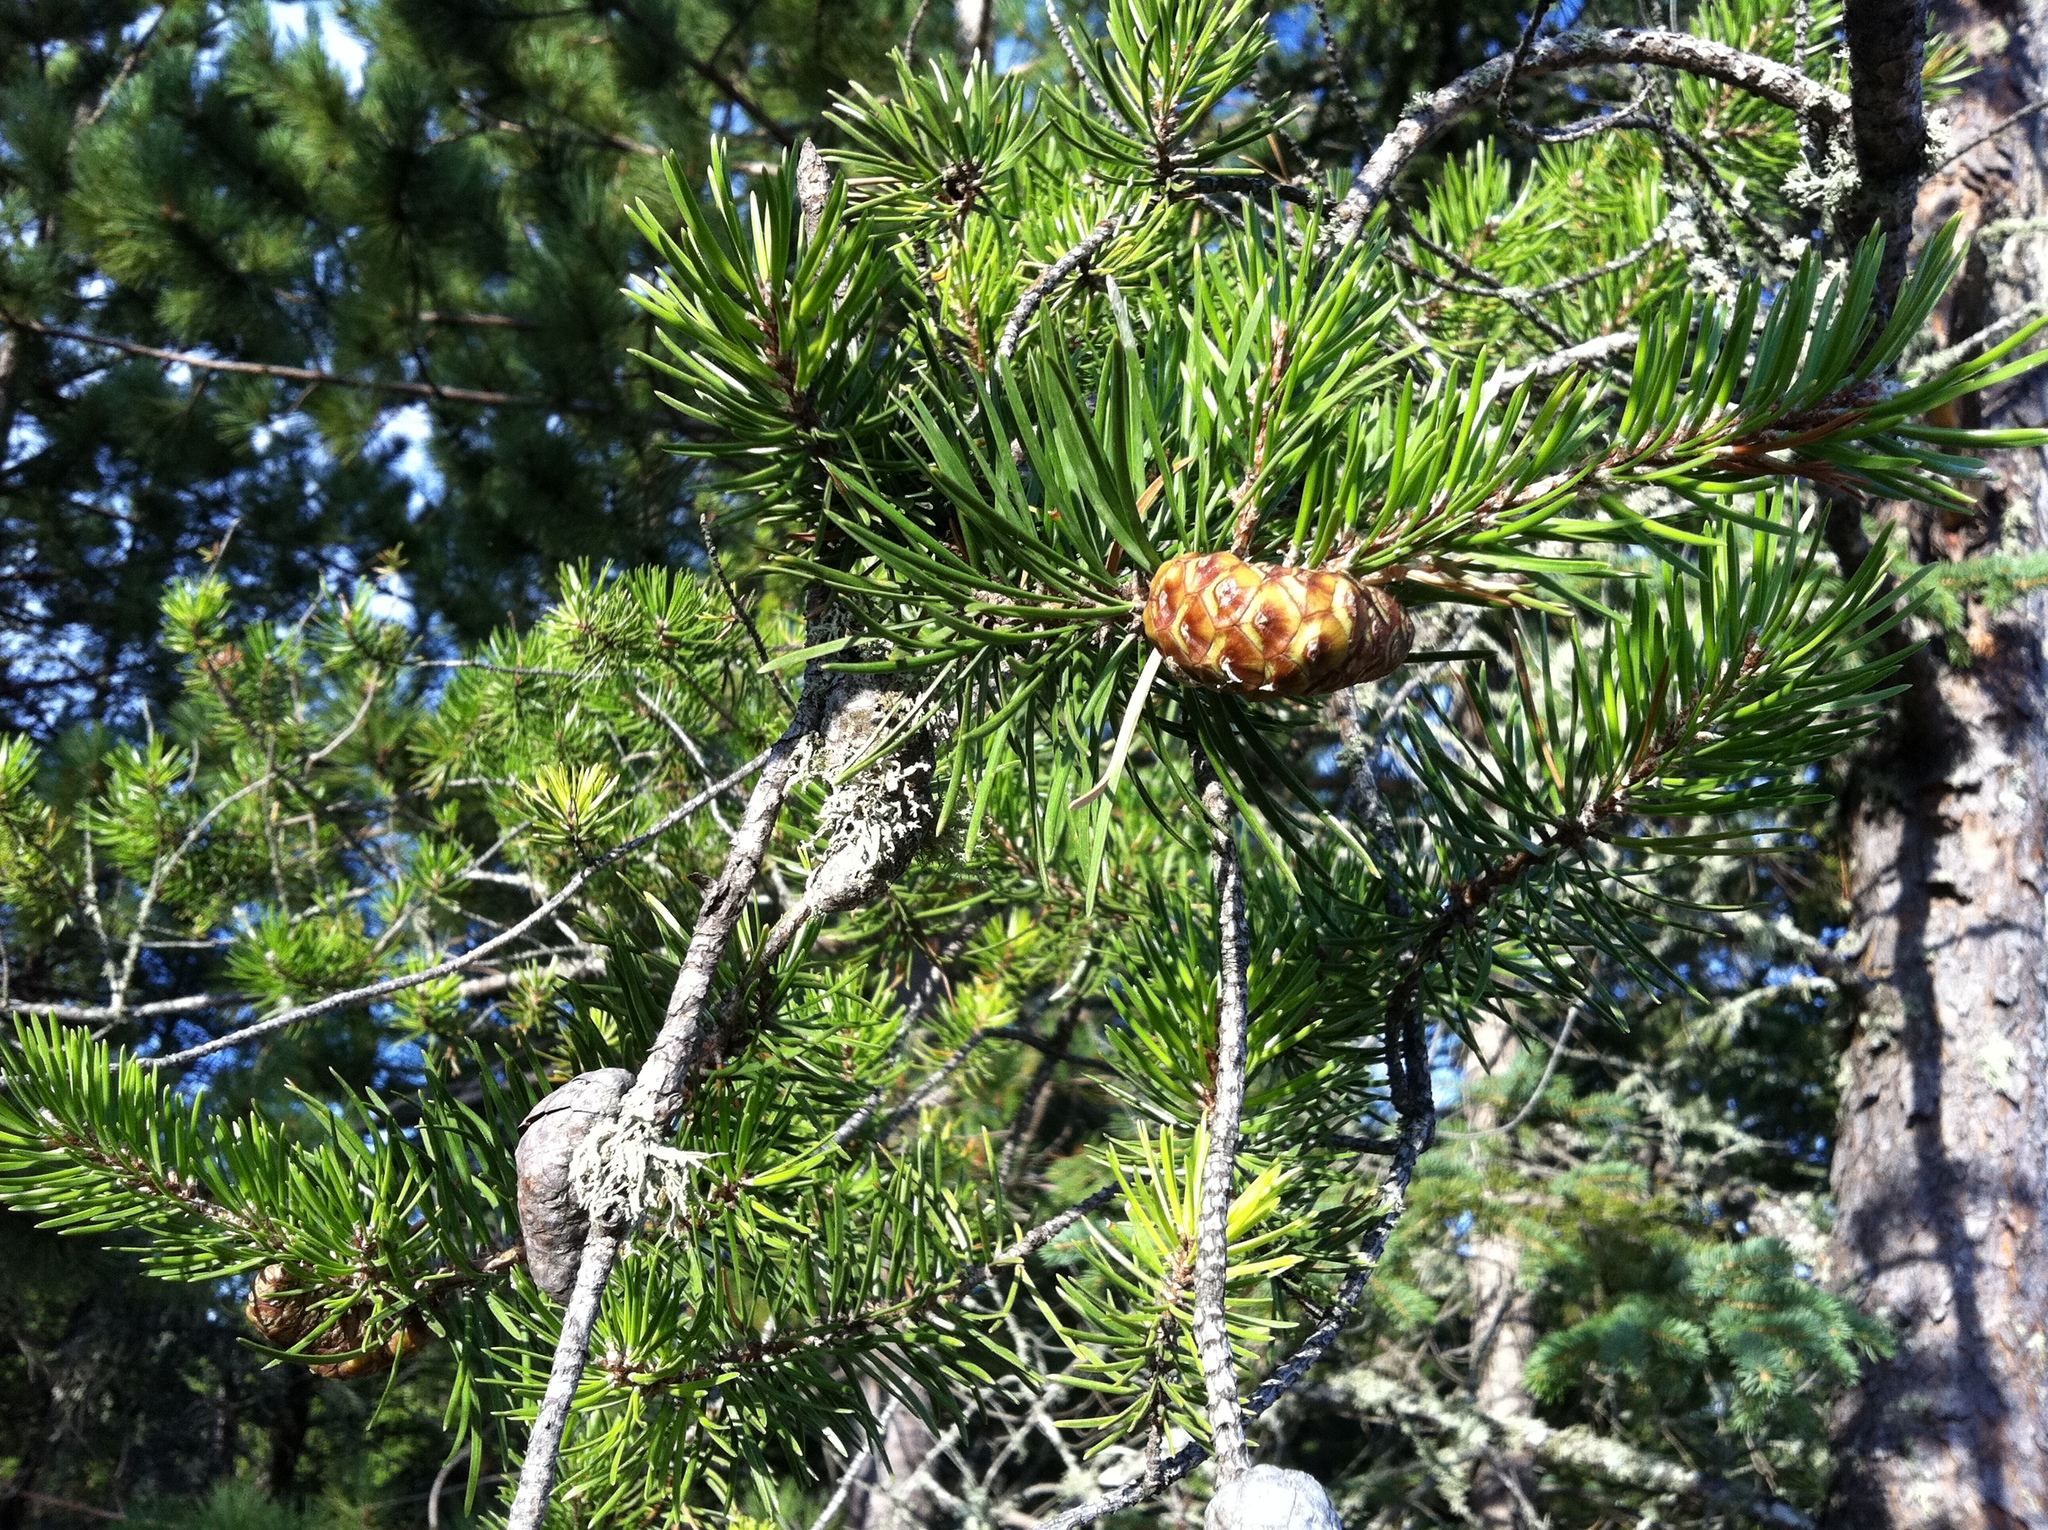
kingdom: Plantae
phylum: Tracheophyta
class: Pinopsida
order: Pinales
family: Pinaceae
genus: Pinus
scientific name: Pinus banksiana
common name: Jack pine
